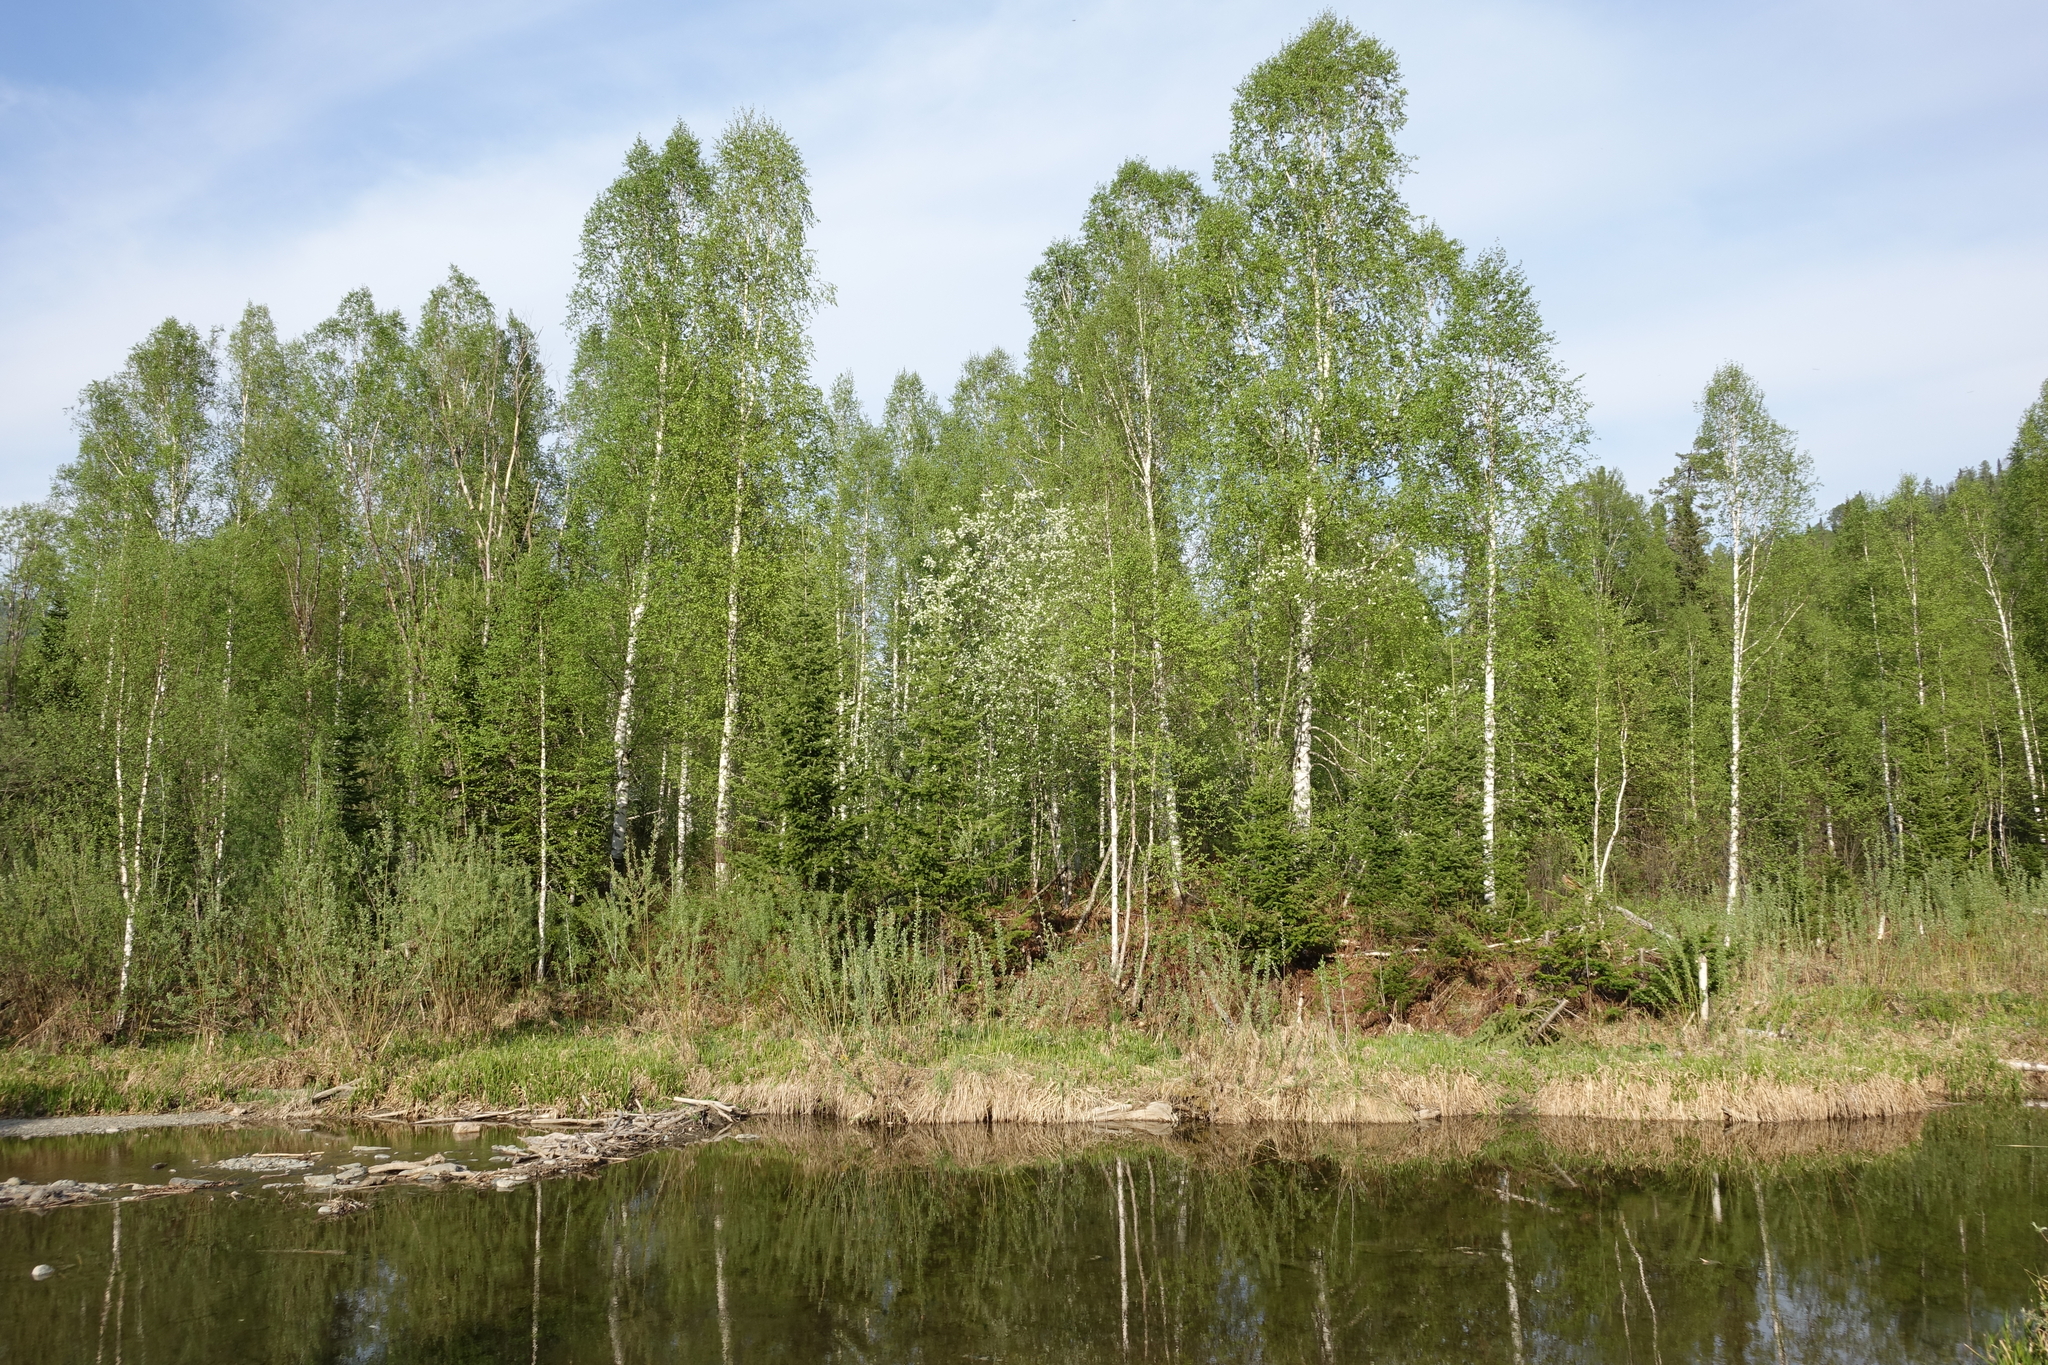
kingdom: Plantae
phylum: Tracheophyta
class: Magnoliopsida
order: Fagales
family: Betulaceae
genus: Betula
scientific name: Betula pendula
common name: Silver birch
